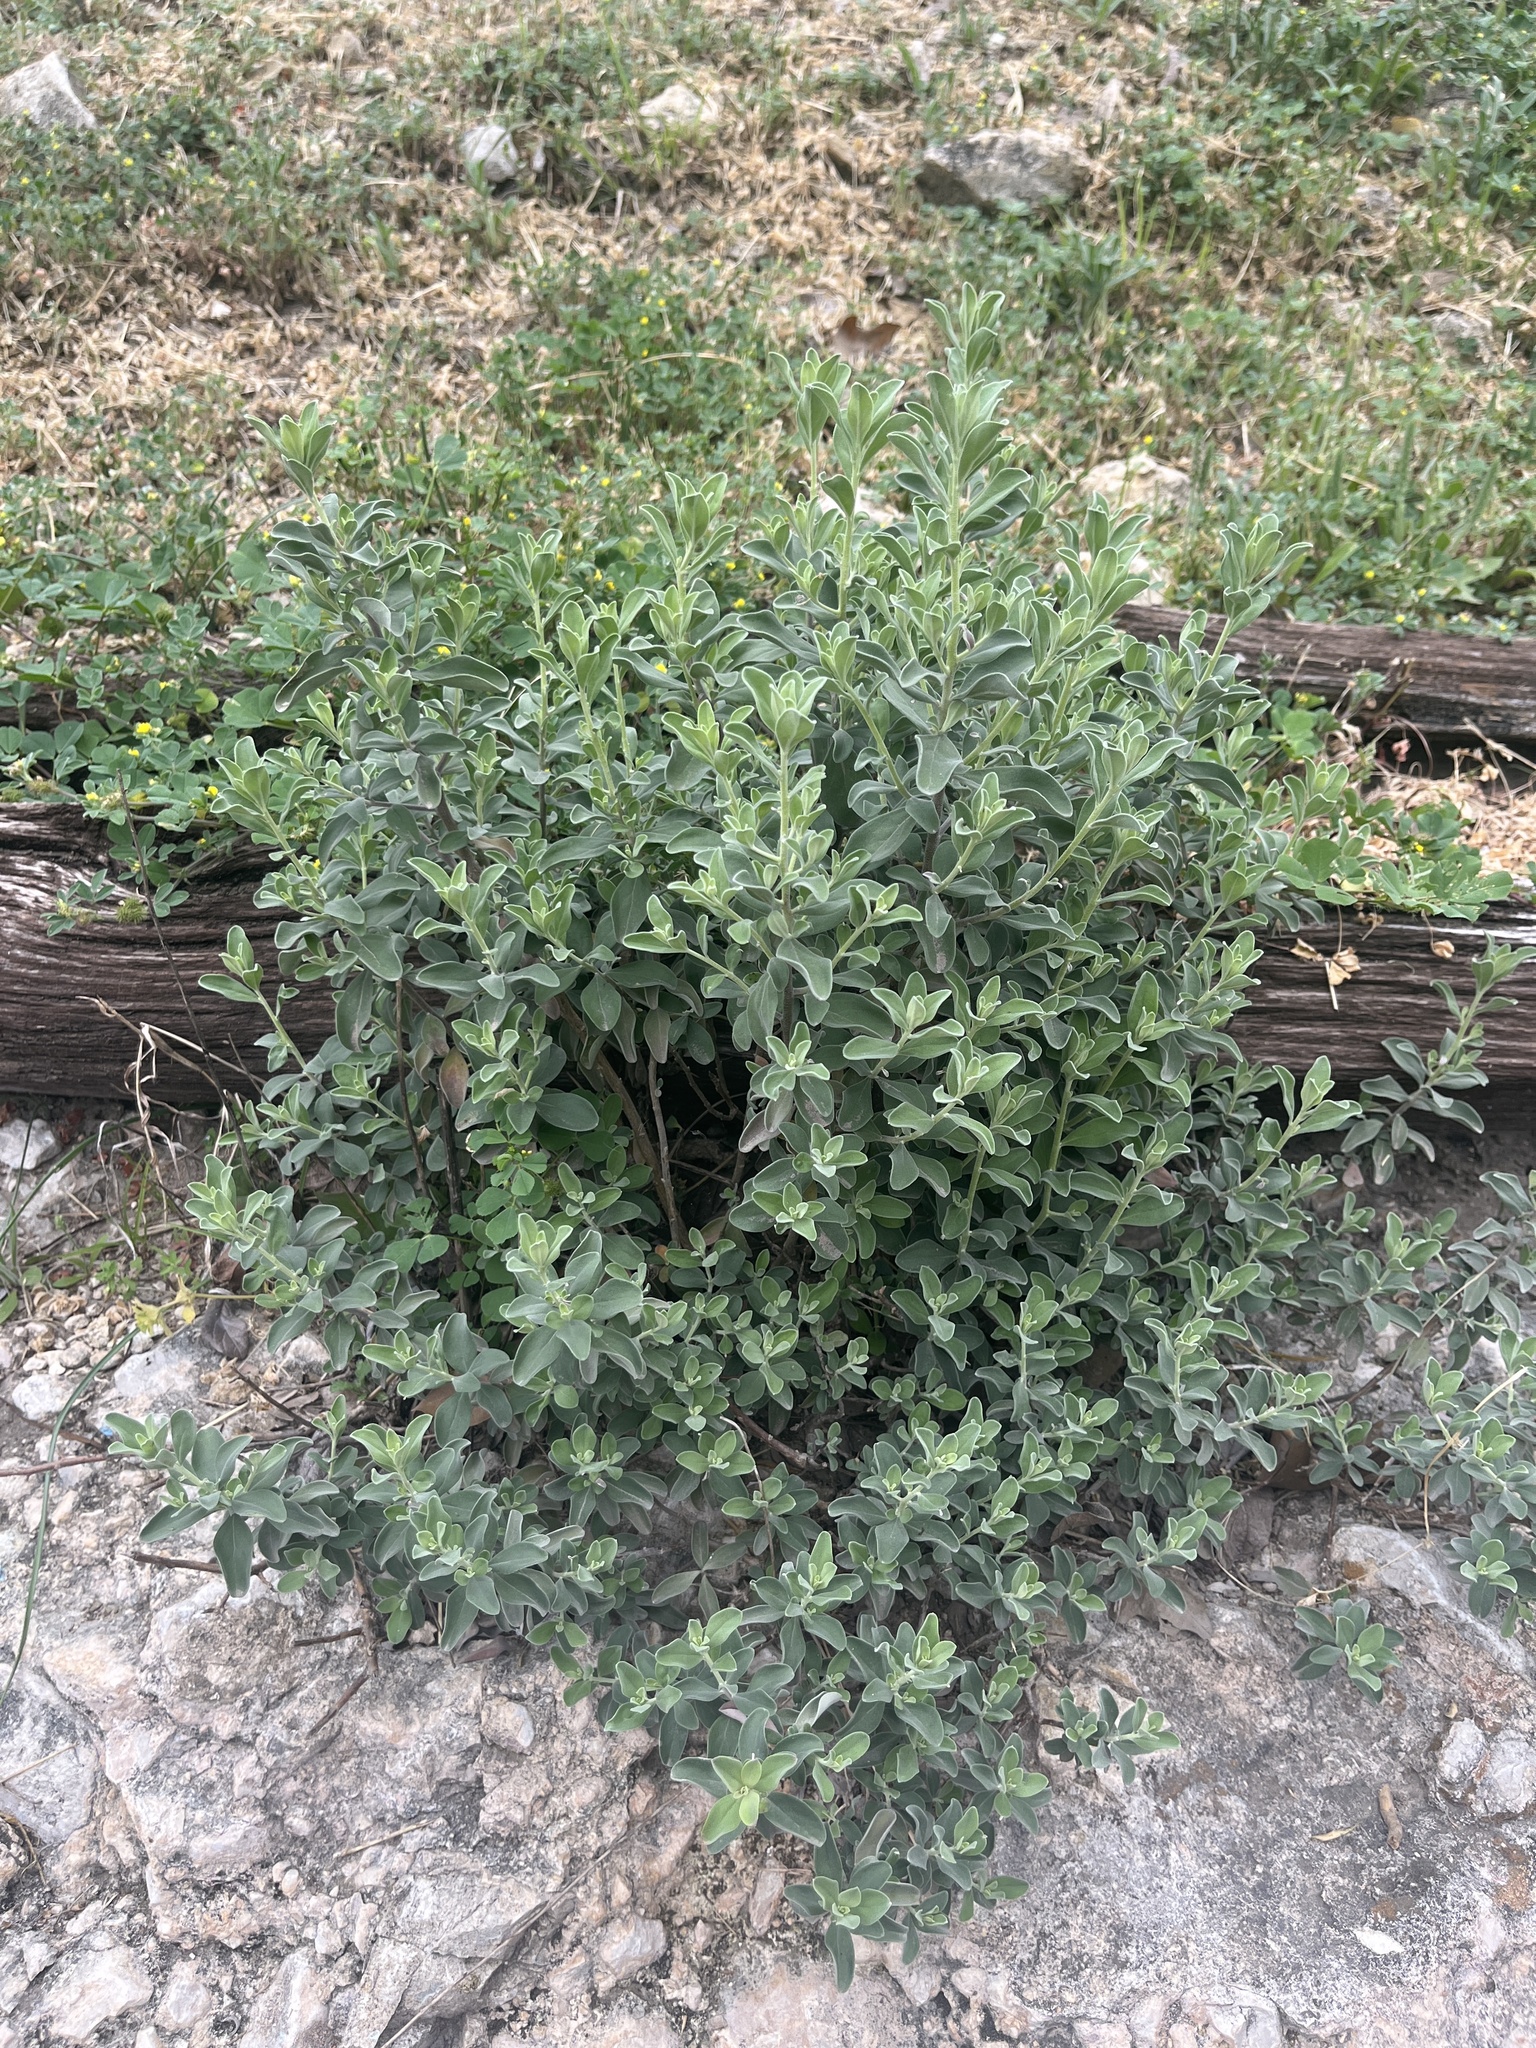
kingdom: Plantae
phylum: Tracheophyta
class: Magnoliopsida
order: Lamiales
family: Scrophulariaceae
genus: Leucophyllum
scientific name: Leucophyllum frutescens
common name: Texas silverleaf
